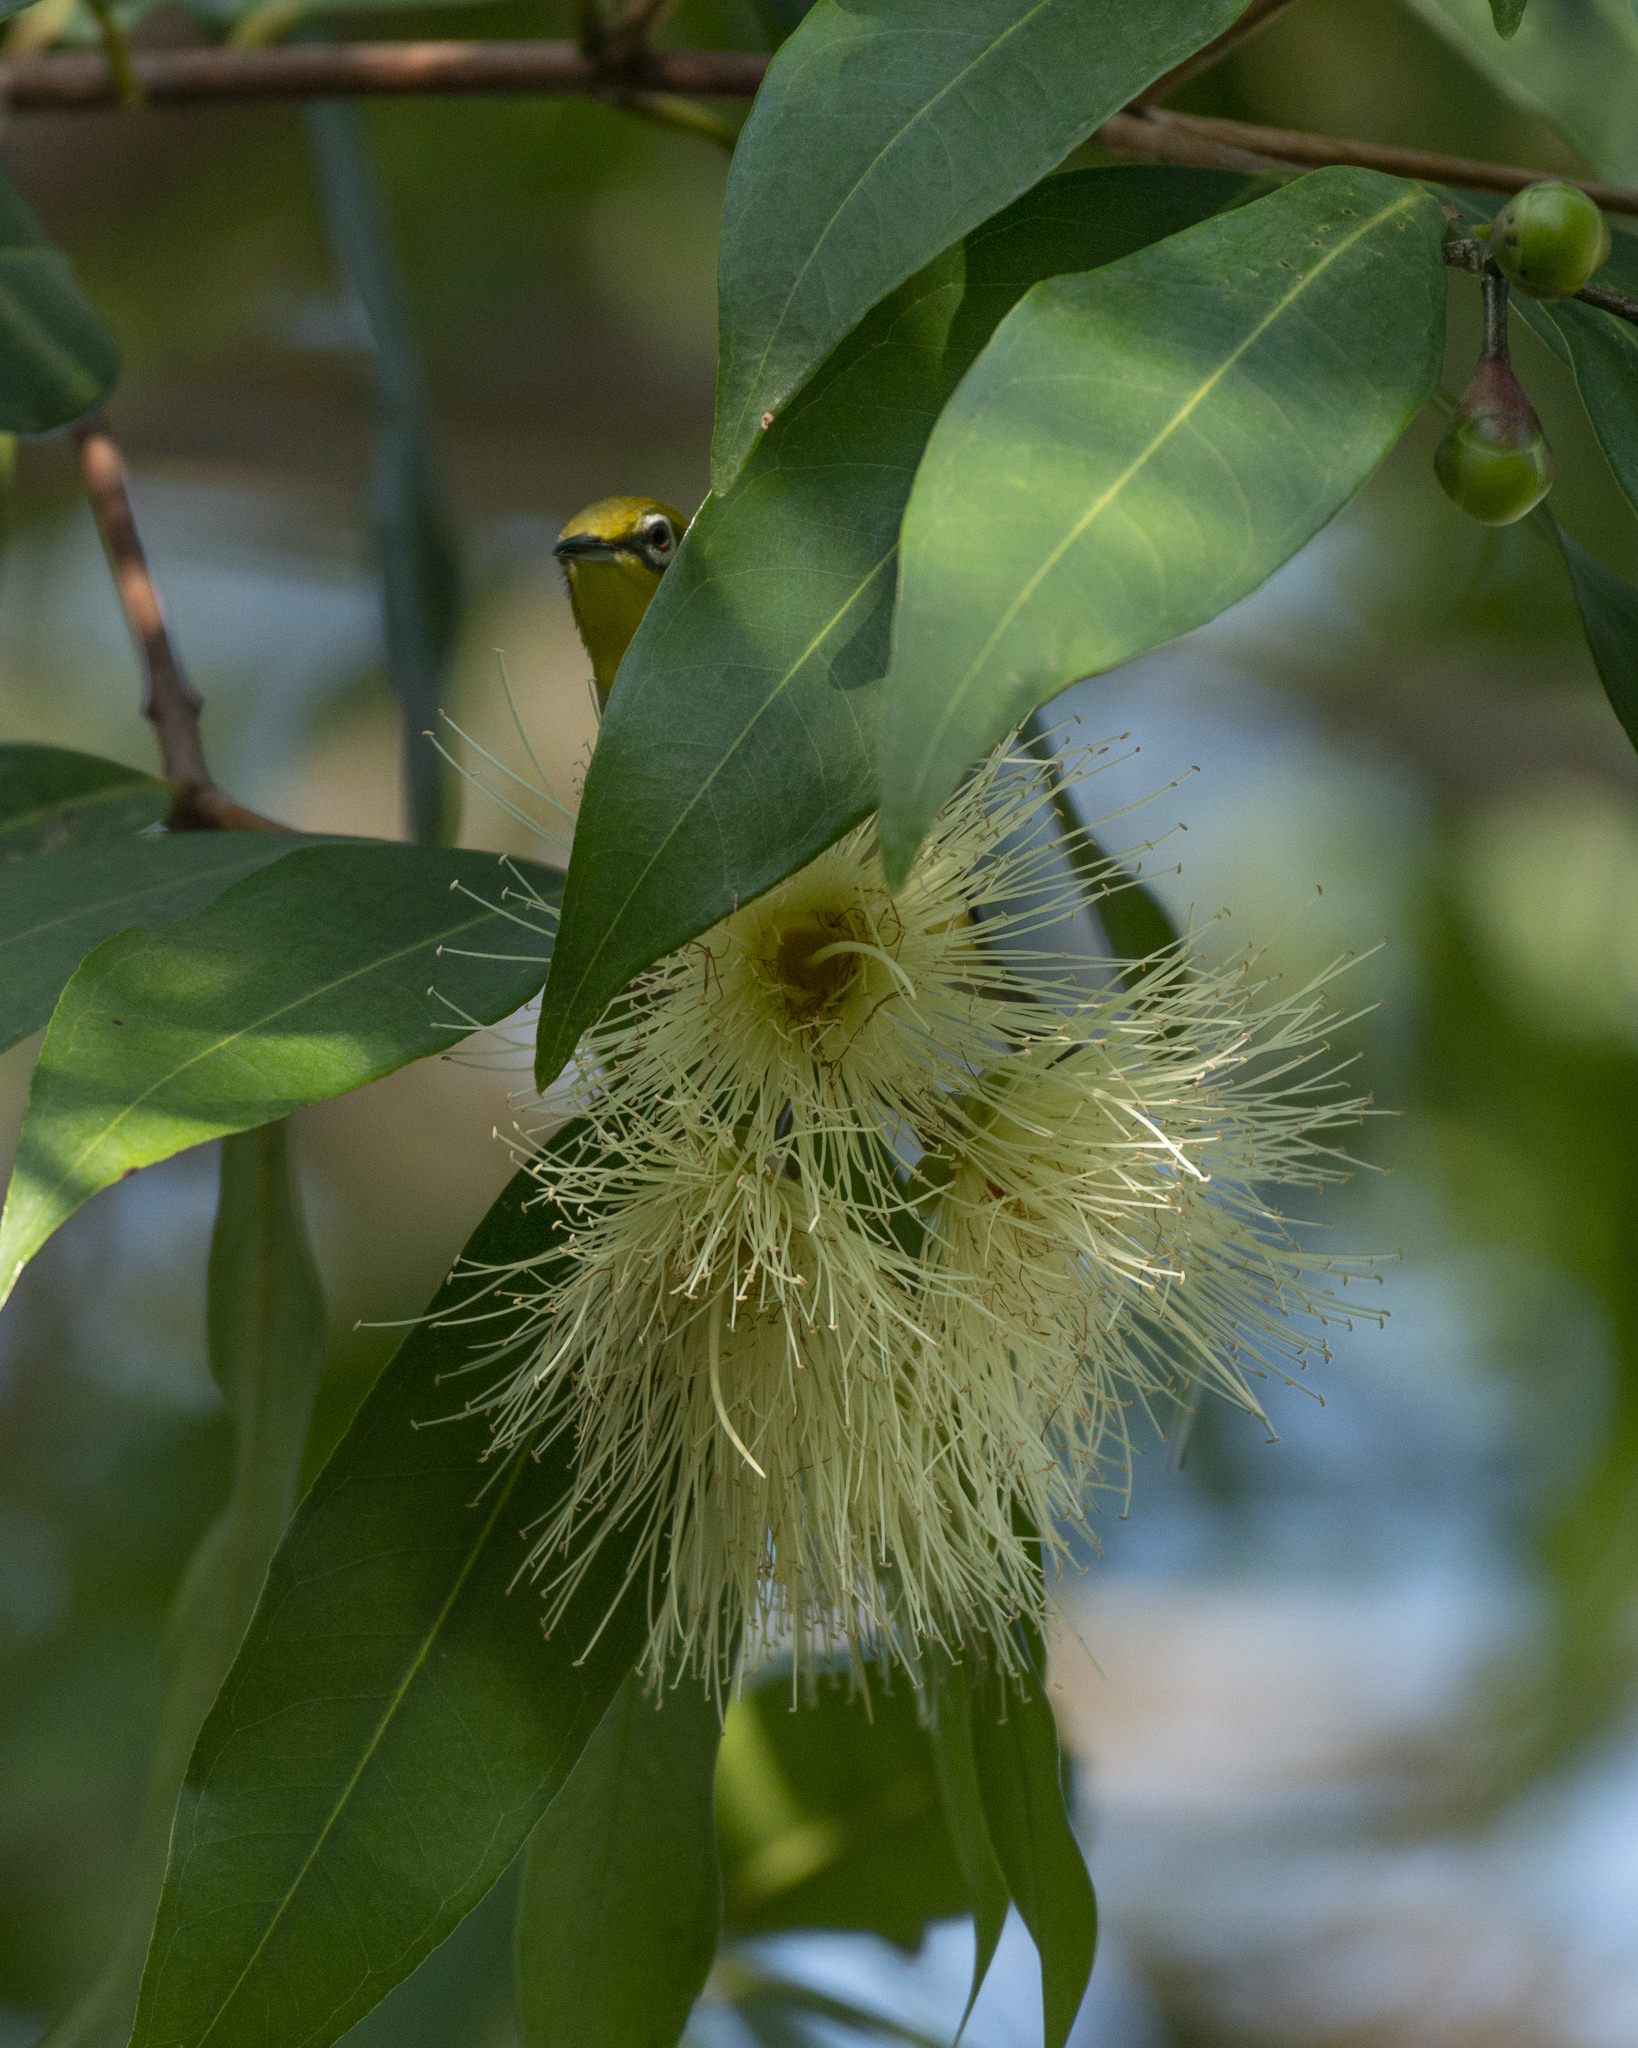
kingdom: Animalia
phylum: Chordata
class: Aves
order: Passeriformes
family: Zosteropidae
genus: Zosterops
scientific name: Zosterops simplex
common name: Swinhoe's white-eye
